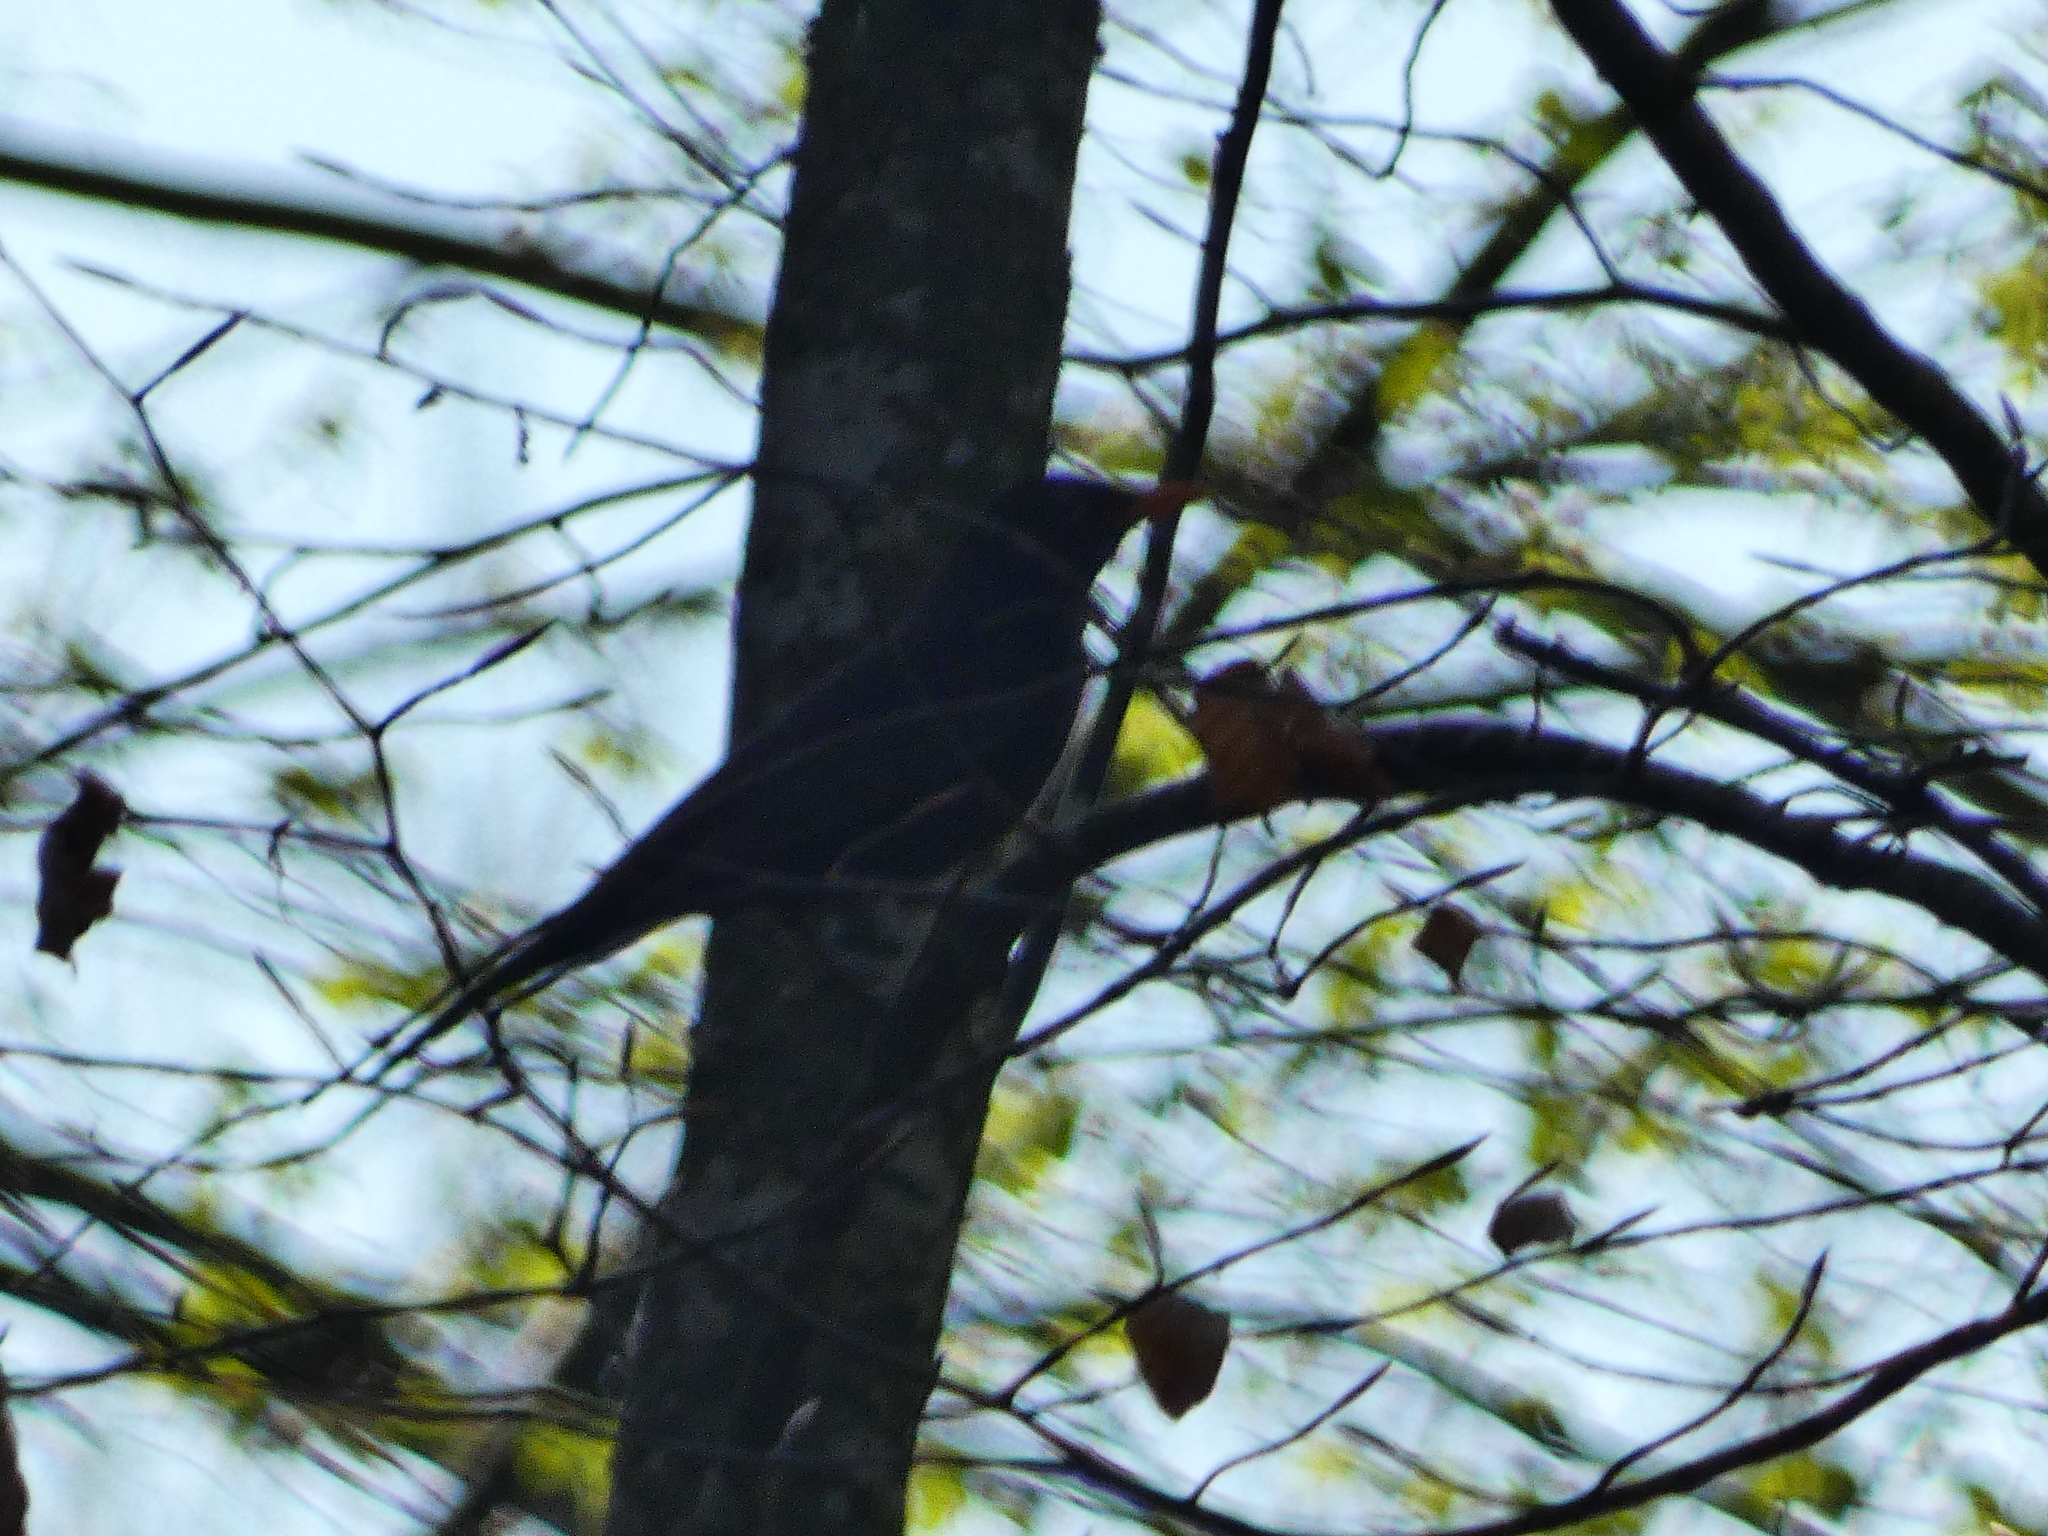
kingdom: Animalia
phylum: Chordata
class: Aves
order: Passeriformes
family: Turdidae
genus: Turdus
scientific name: Turdus merula
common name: Common blackbird
